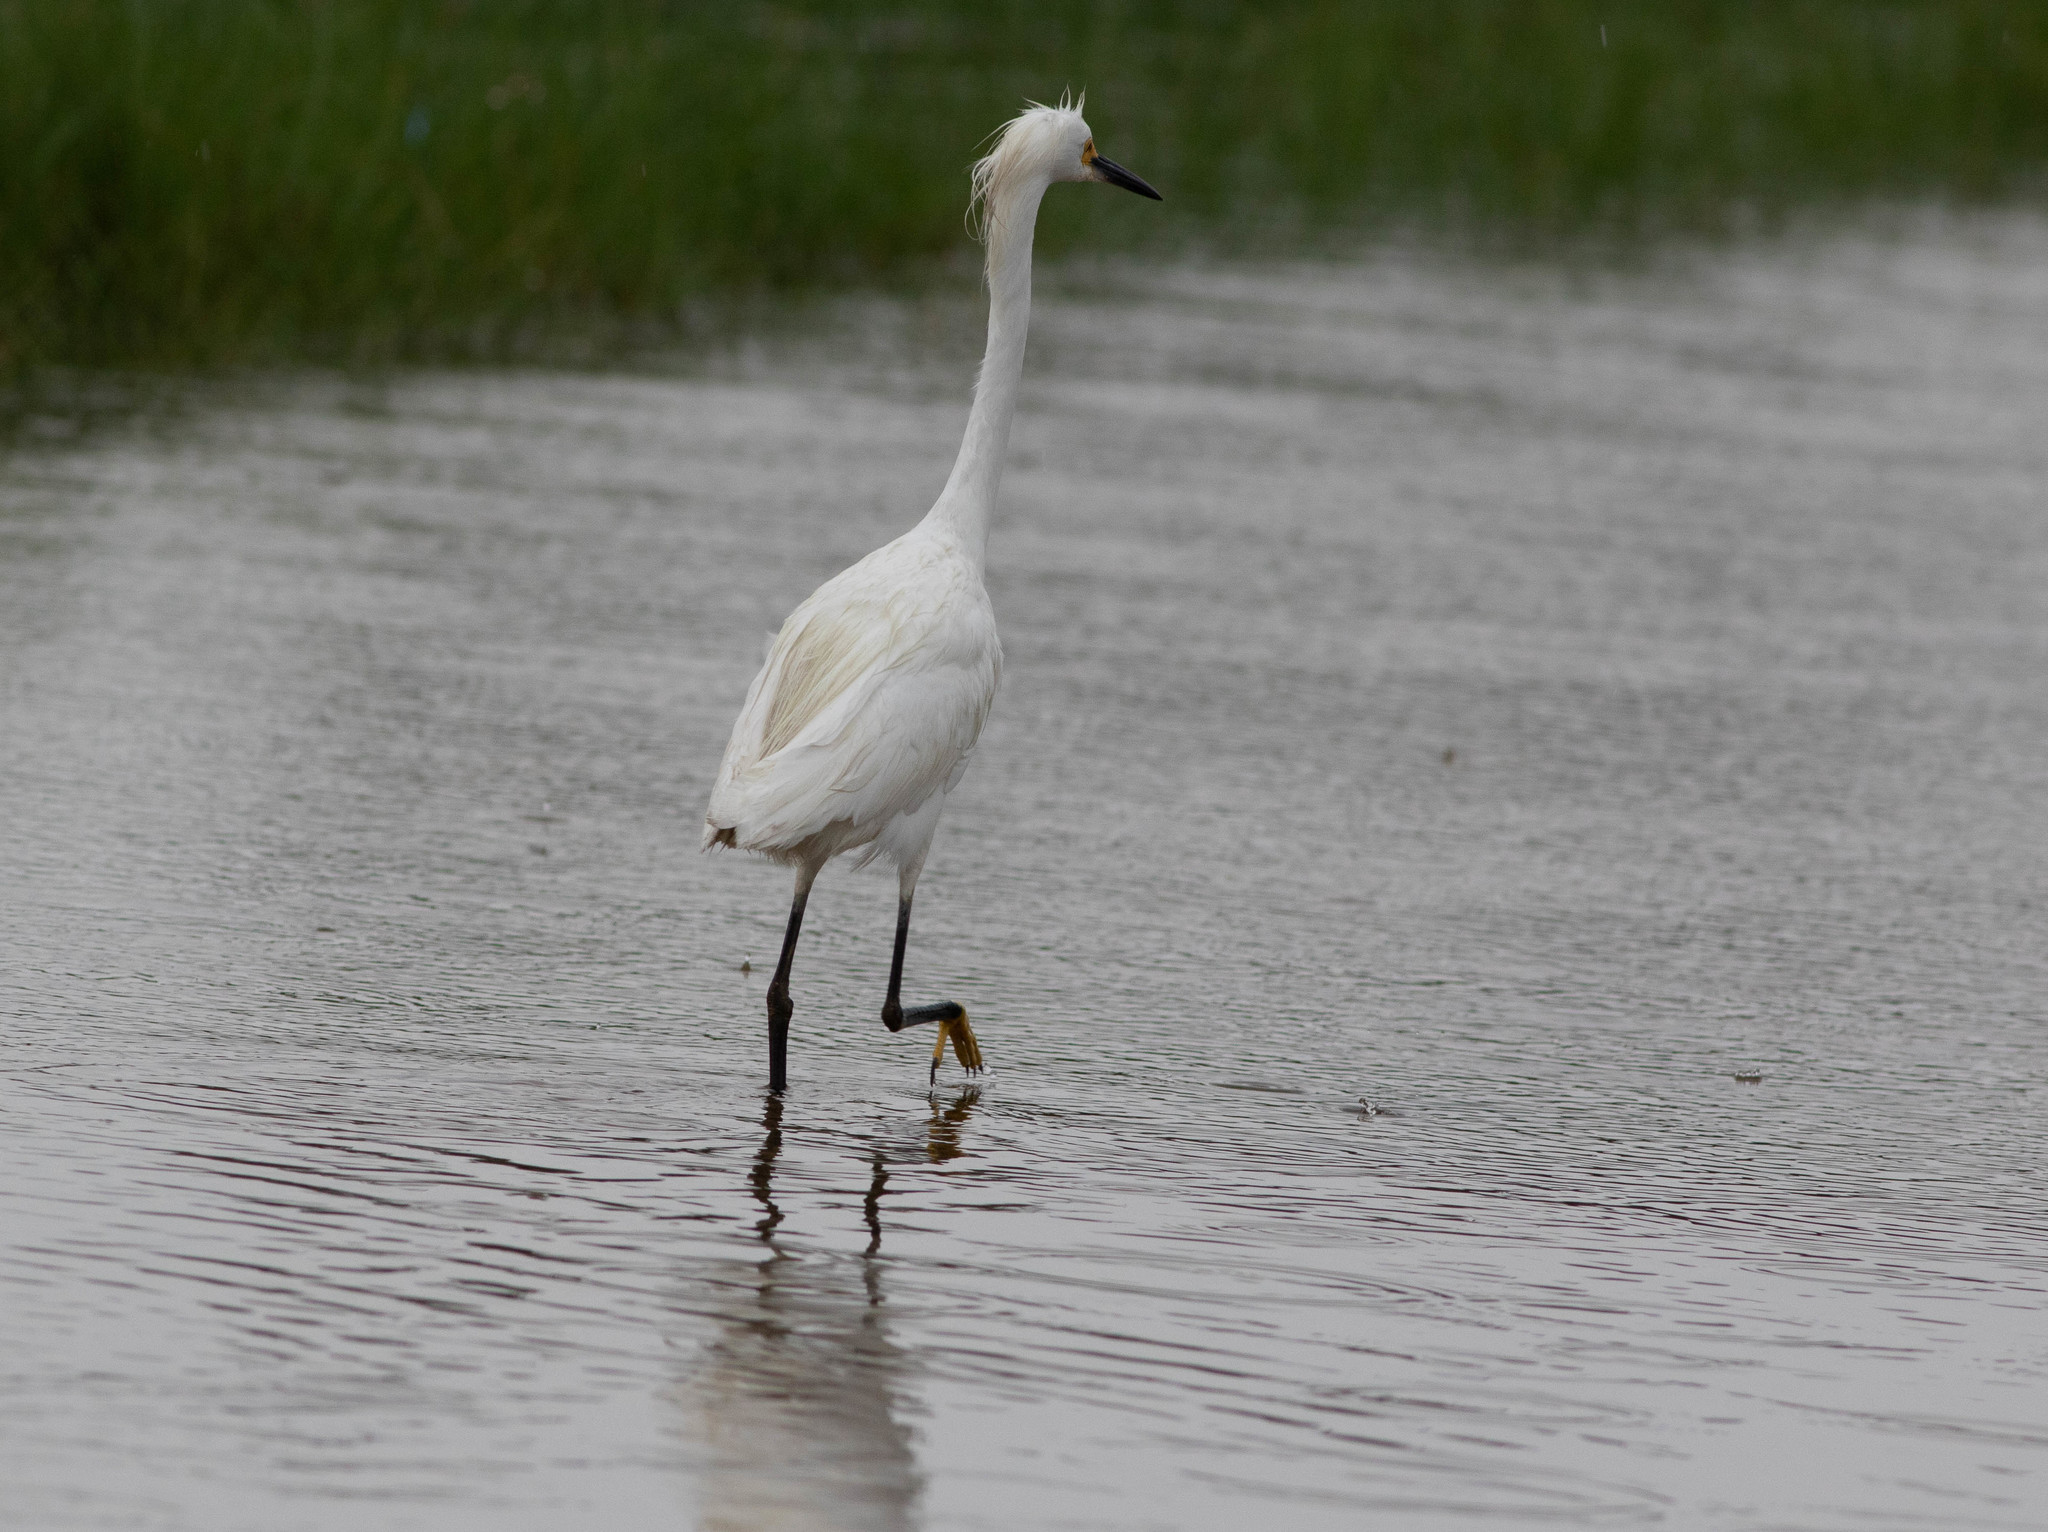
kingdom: Animalia
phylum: Chordata
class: Aves
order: Pelecaniformes
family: Ardeidae
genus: Egretta
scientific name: Egretta thula
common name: Snowy egret
